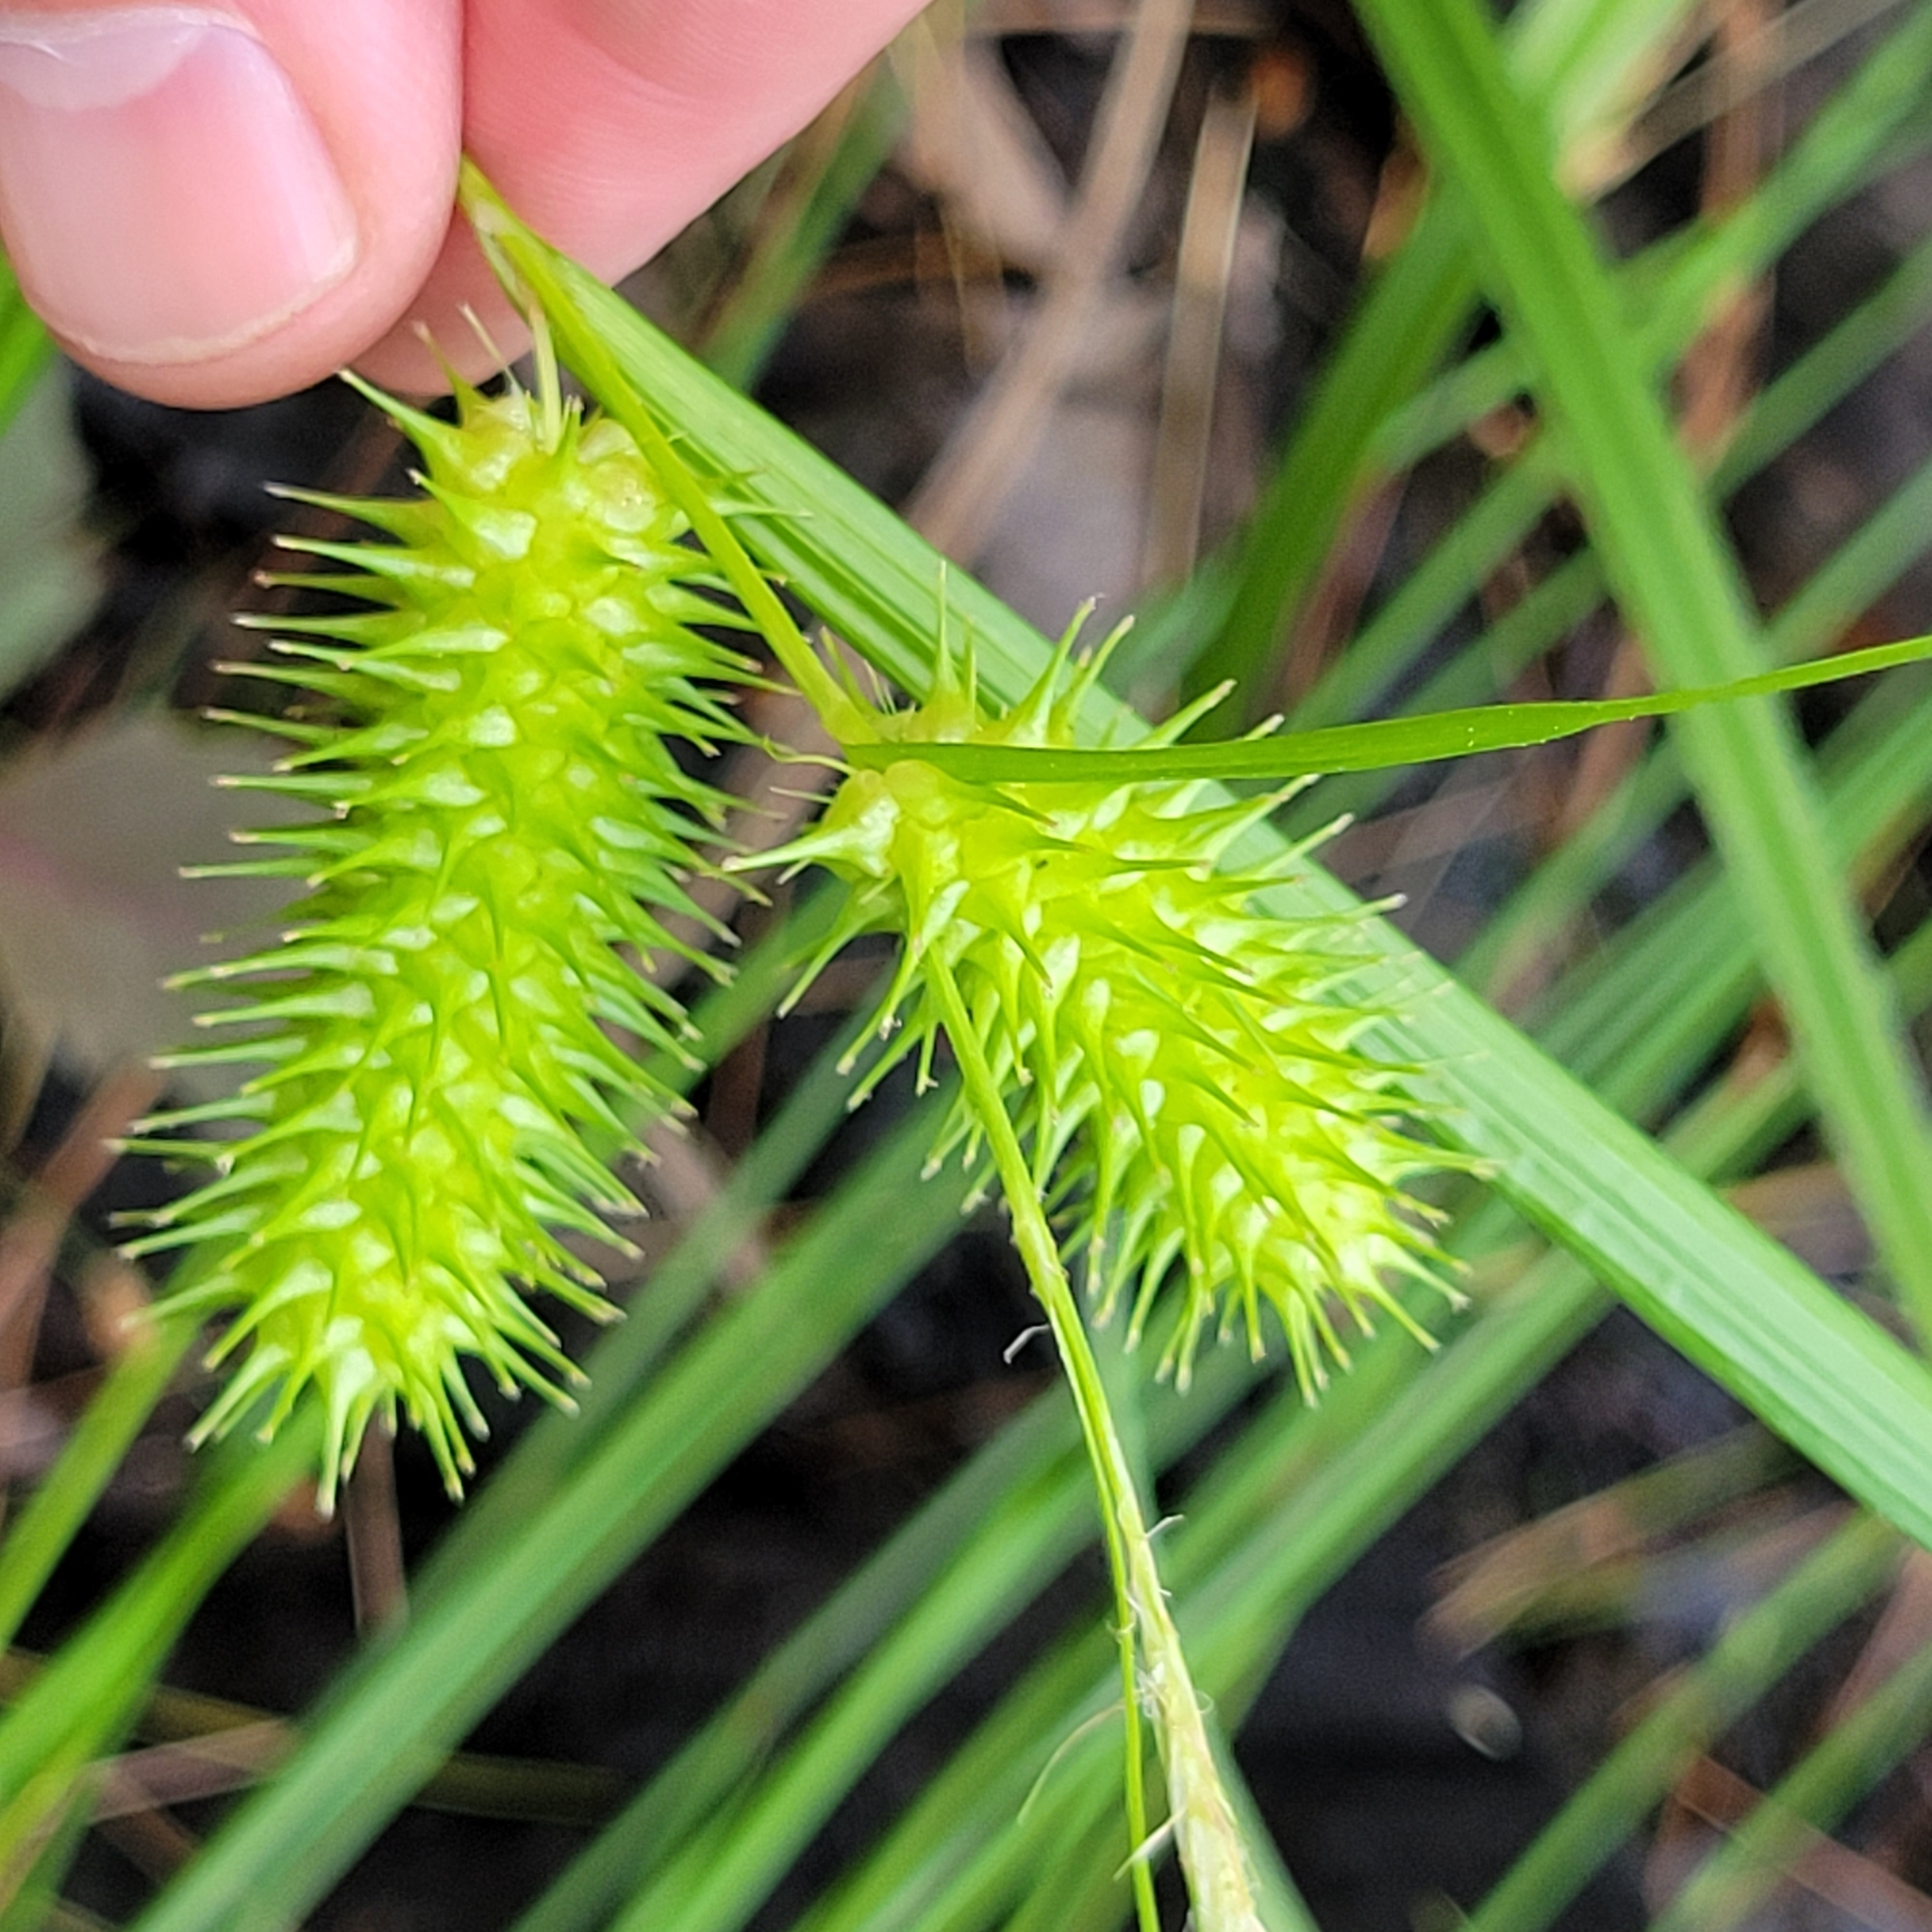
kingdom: Plantae
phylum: Tracheophyta
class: Liliopsida
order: Poales
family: Cyperaceae
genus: Carex
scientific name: Carex lurida
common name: Sallow sedge
